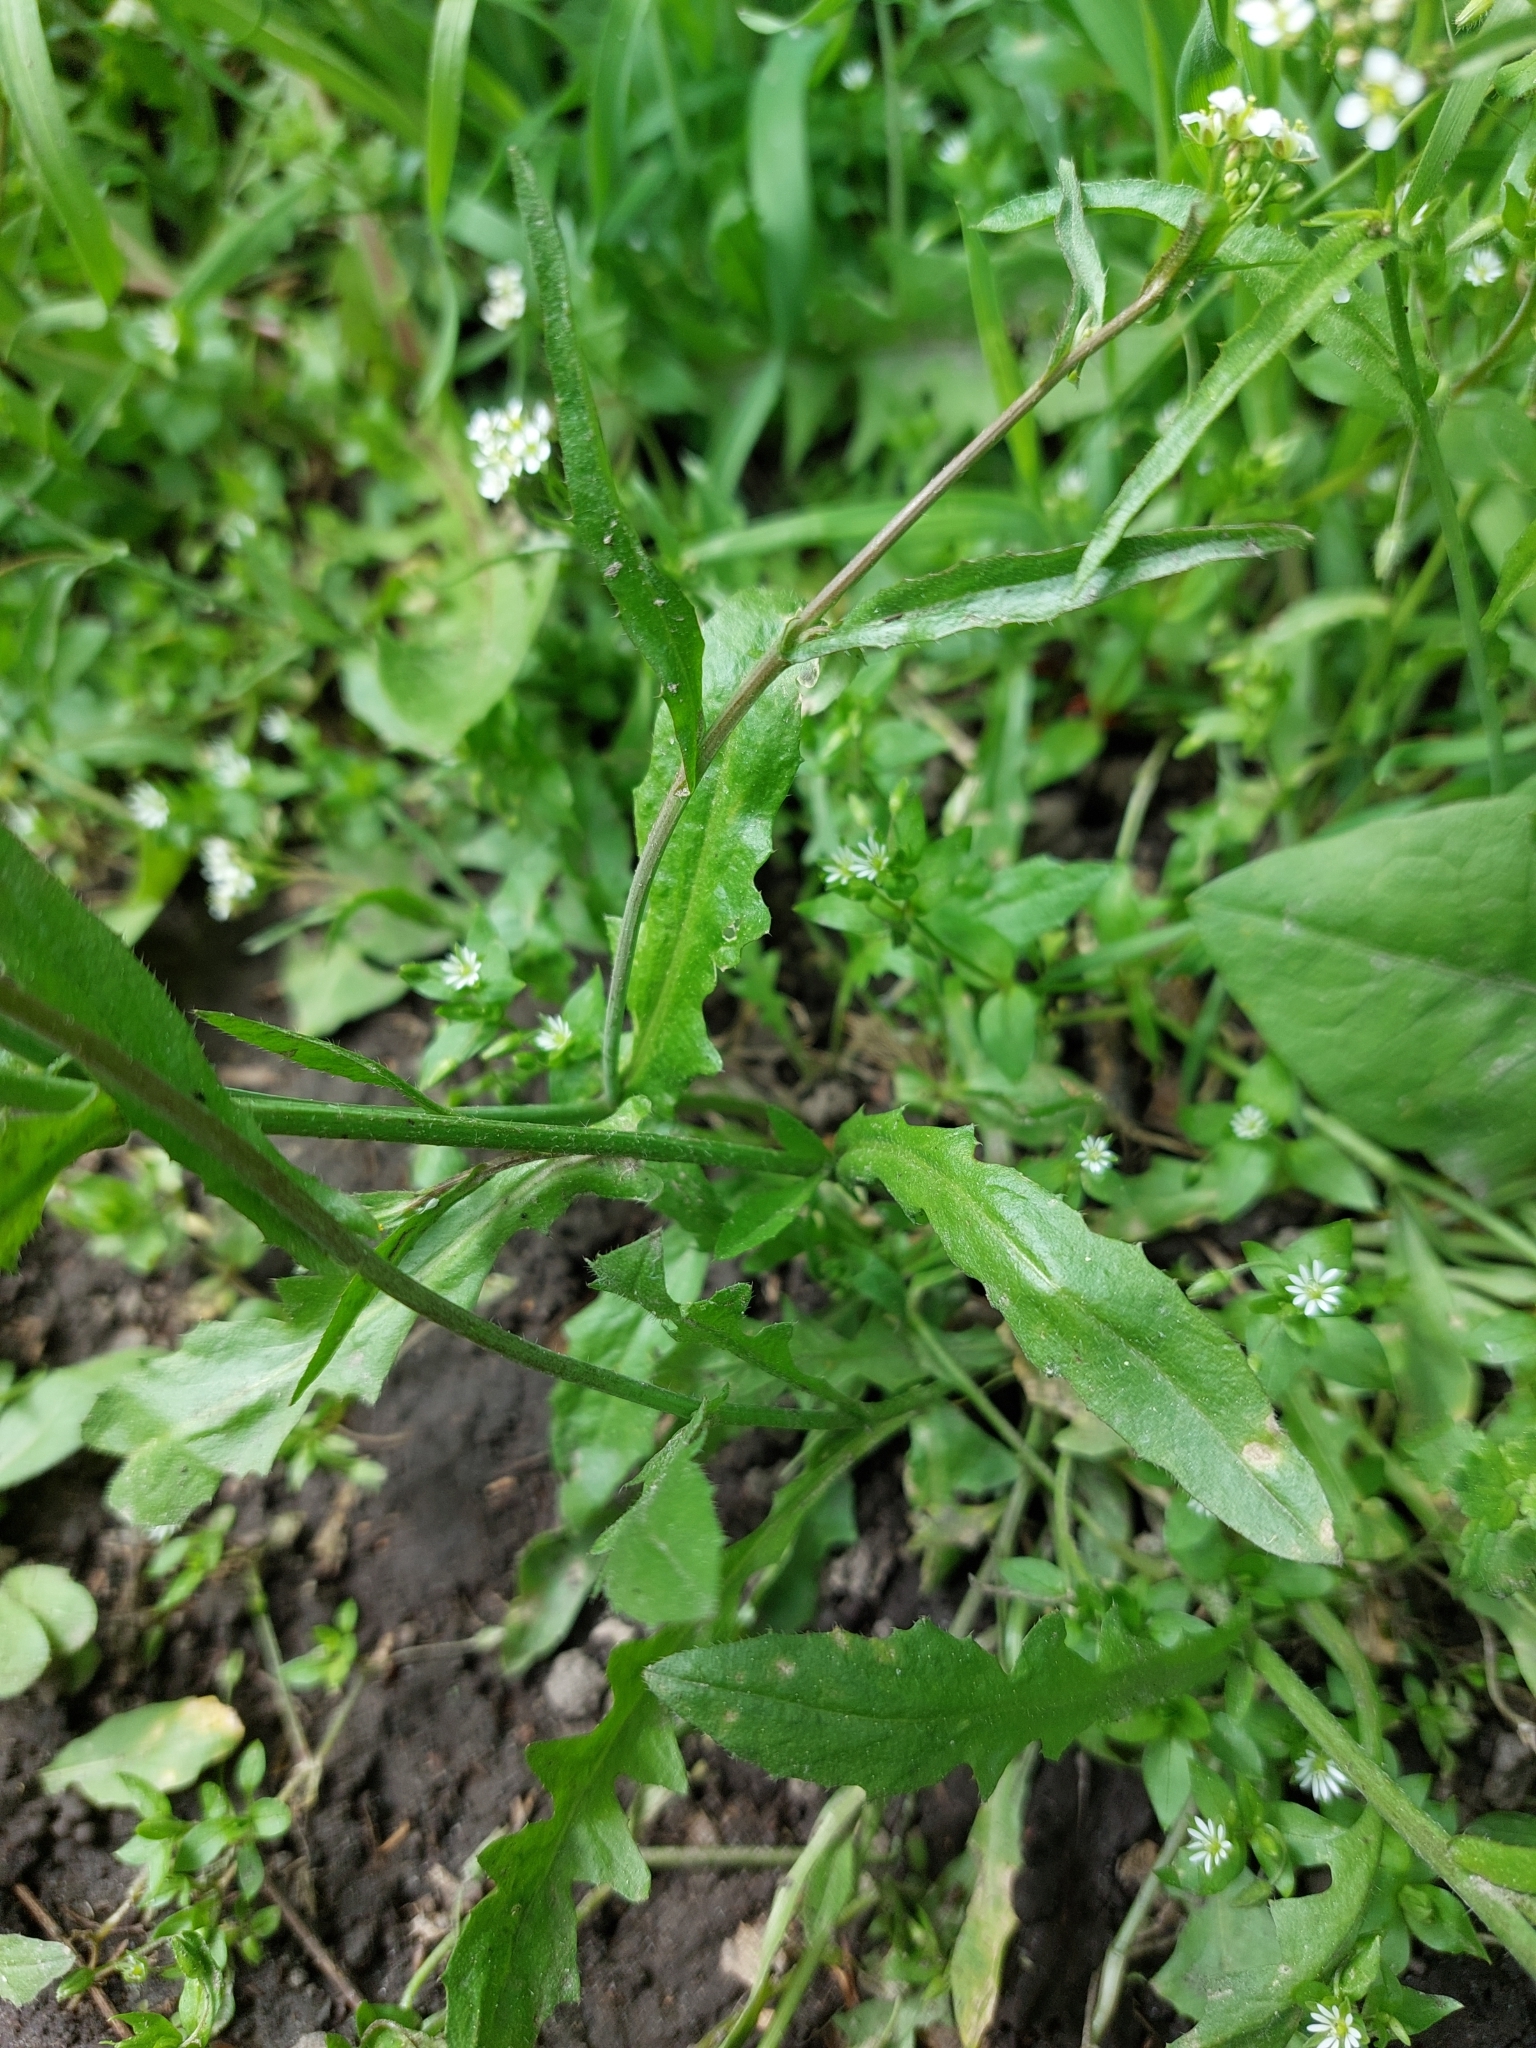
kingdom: Plantae
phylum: Tracheophyta
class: Magnoliopsida
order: Brassicales
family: Brassicaceae
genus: Capsella
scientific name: Capsella bursa-pastoris
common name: Shepherd's purse
